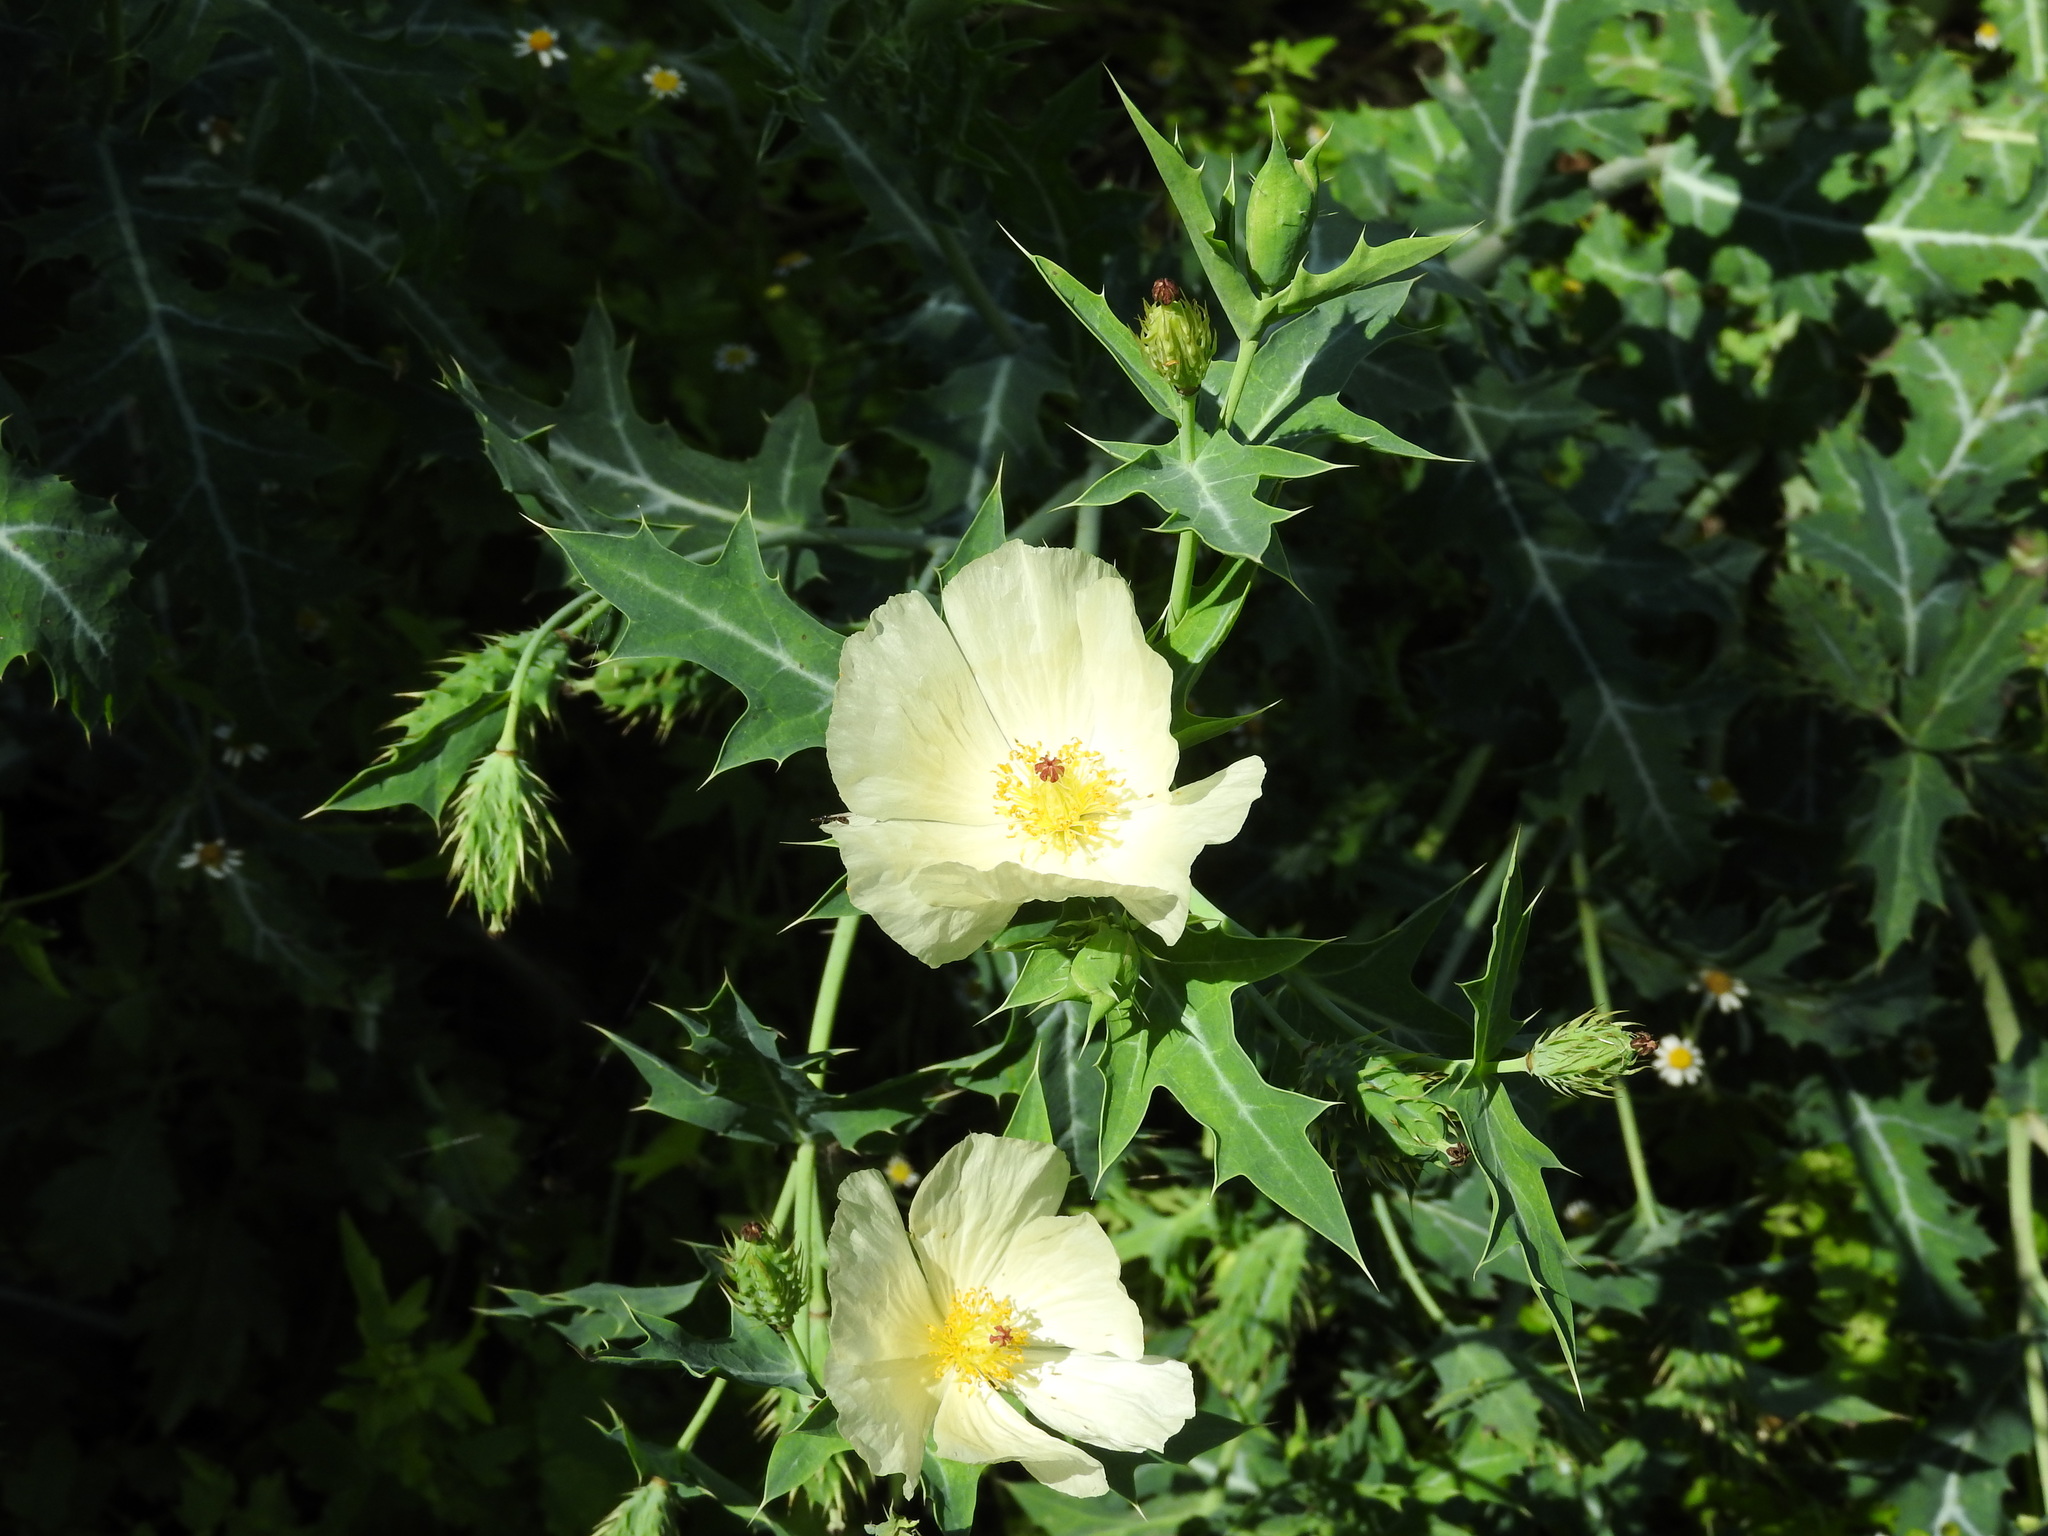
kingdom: Plantae
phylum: Tracheophyta
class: Magnoliopsida
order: Ranunculales
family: Papaveraceae
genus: Argemone
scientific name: Argemone grandiflora
